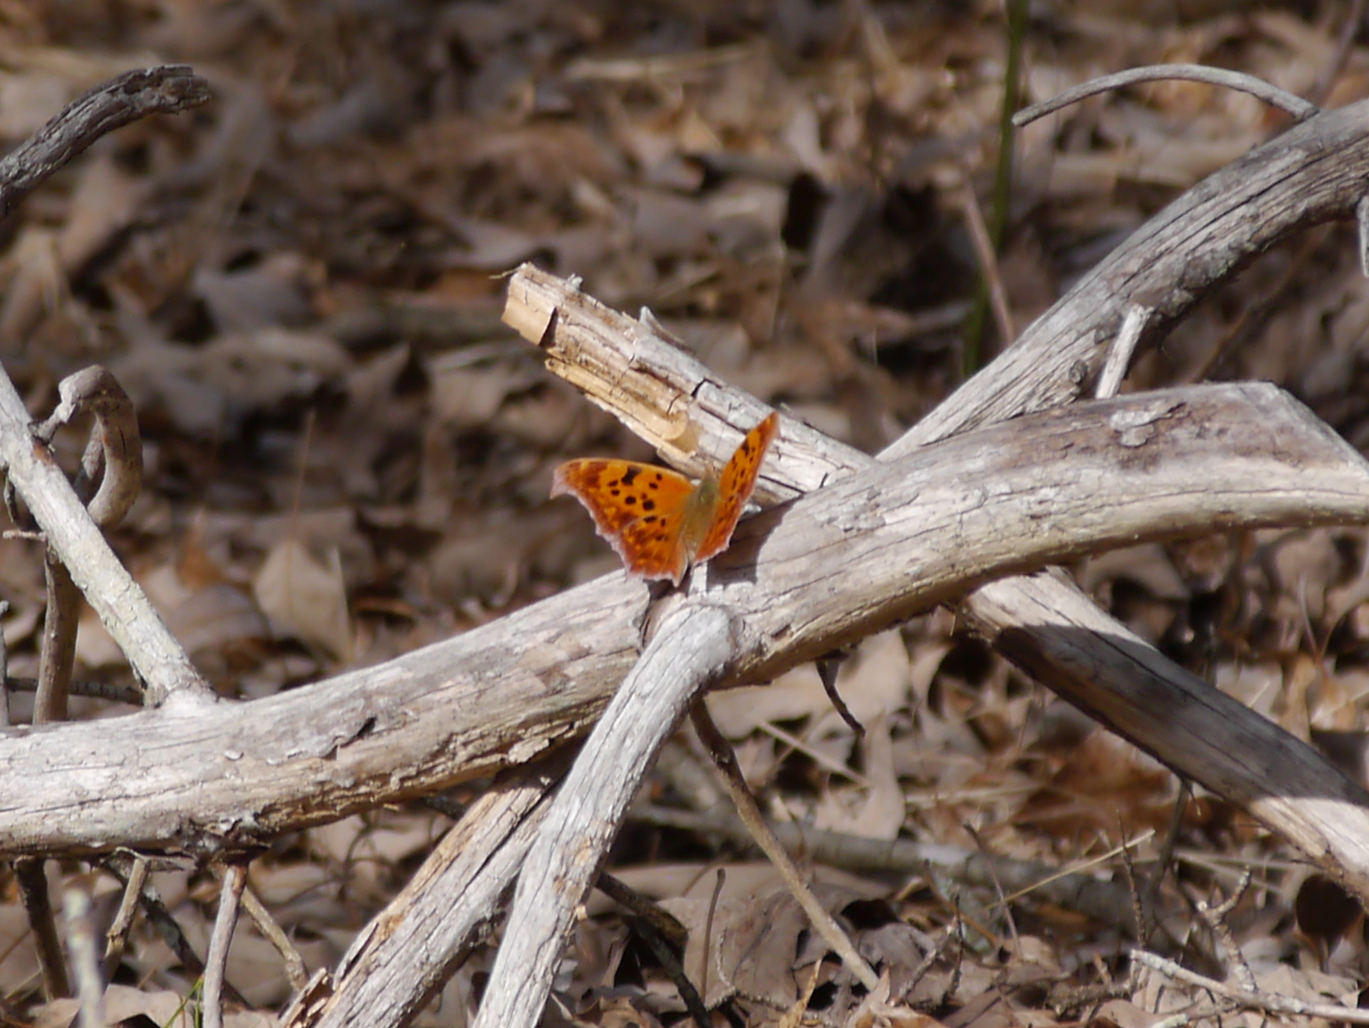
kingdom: Animalia
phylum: Arthropoda
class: Insecta
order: Lepidoptera
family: Nymphalidae
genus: Polygonia
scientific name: Polygonia interrogationis
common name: Question mark
